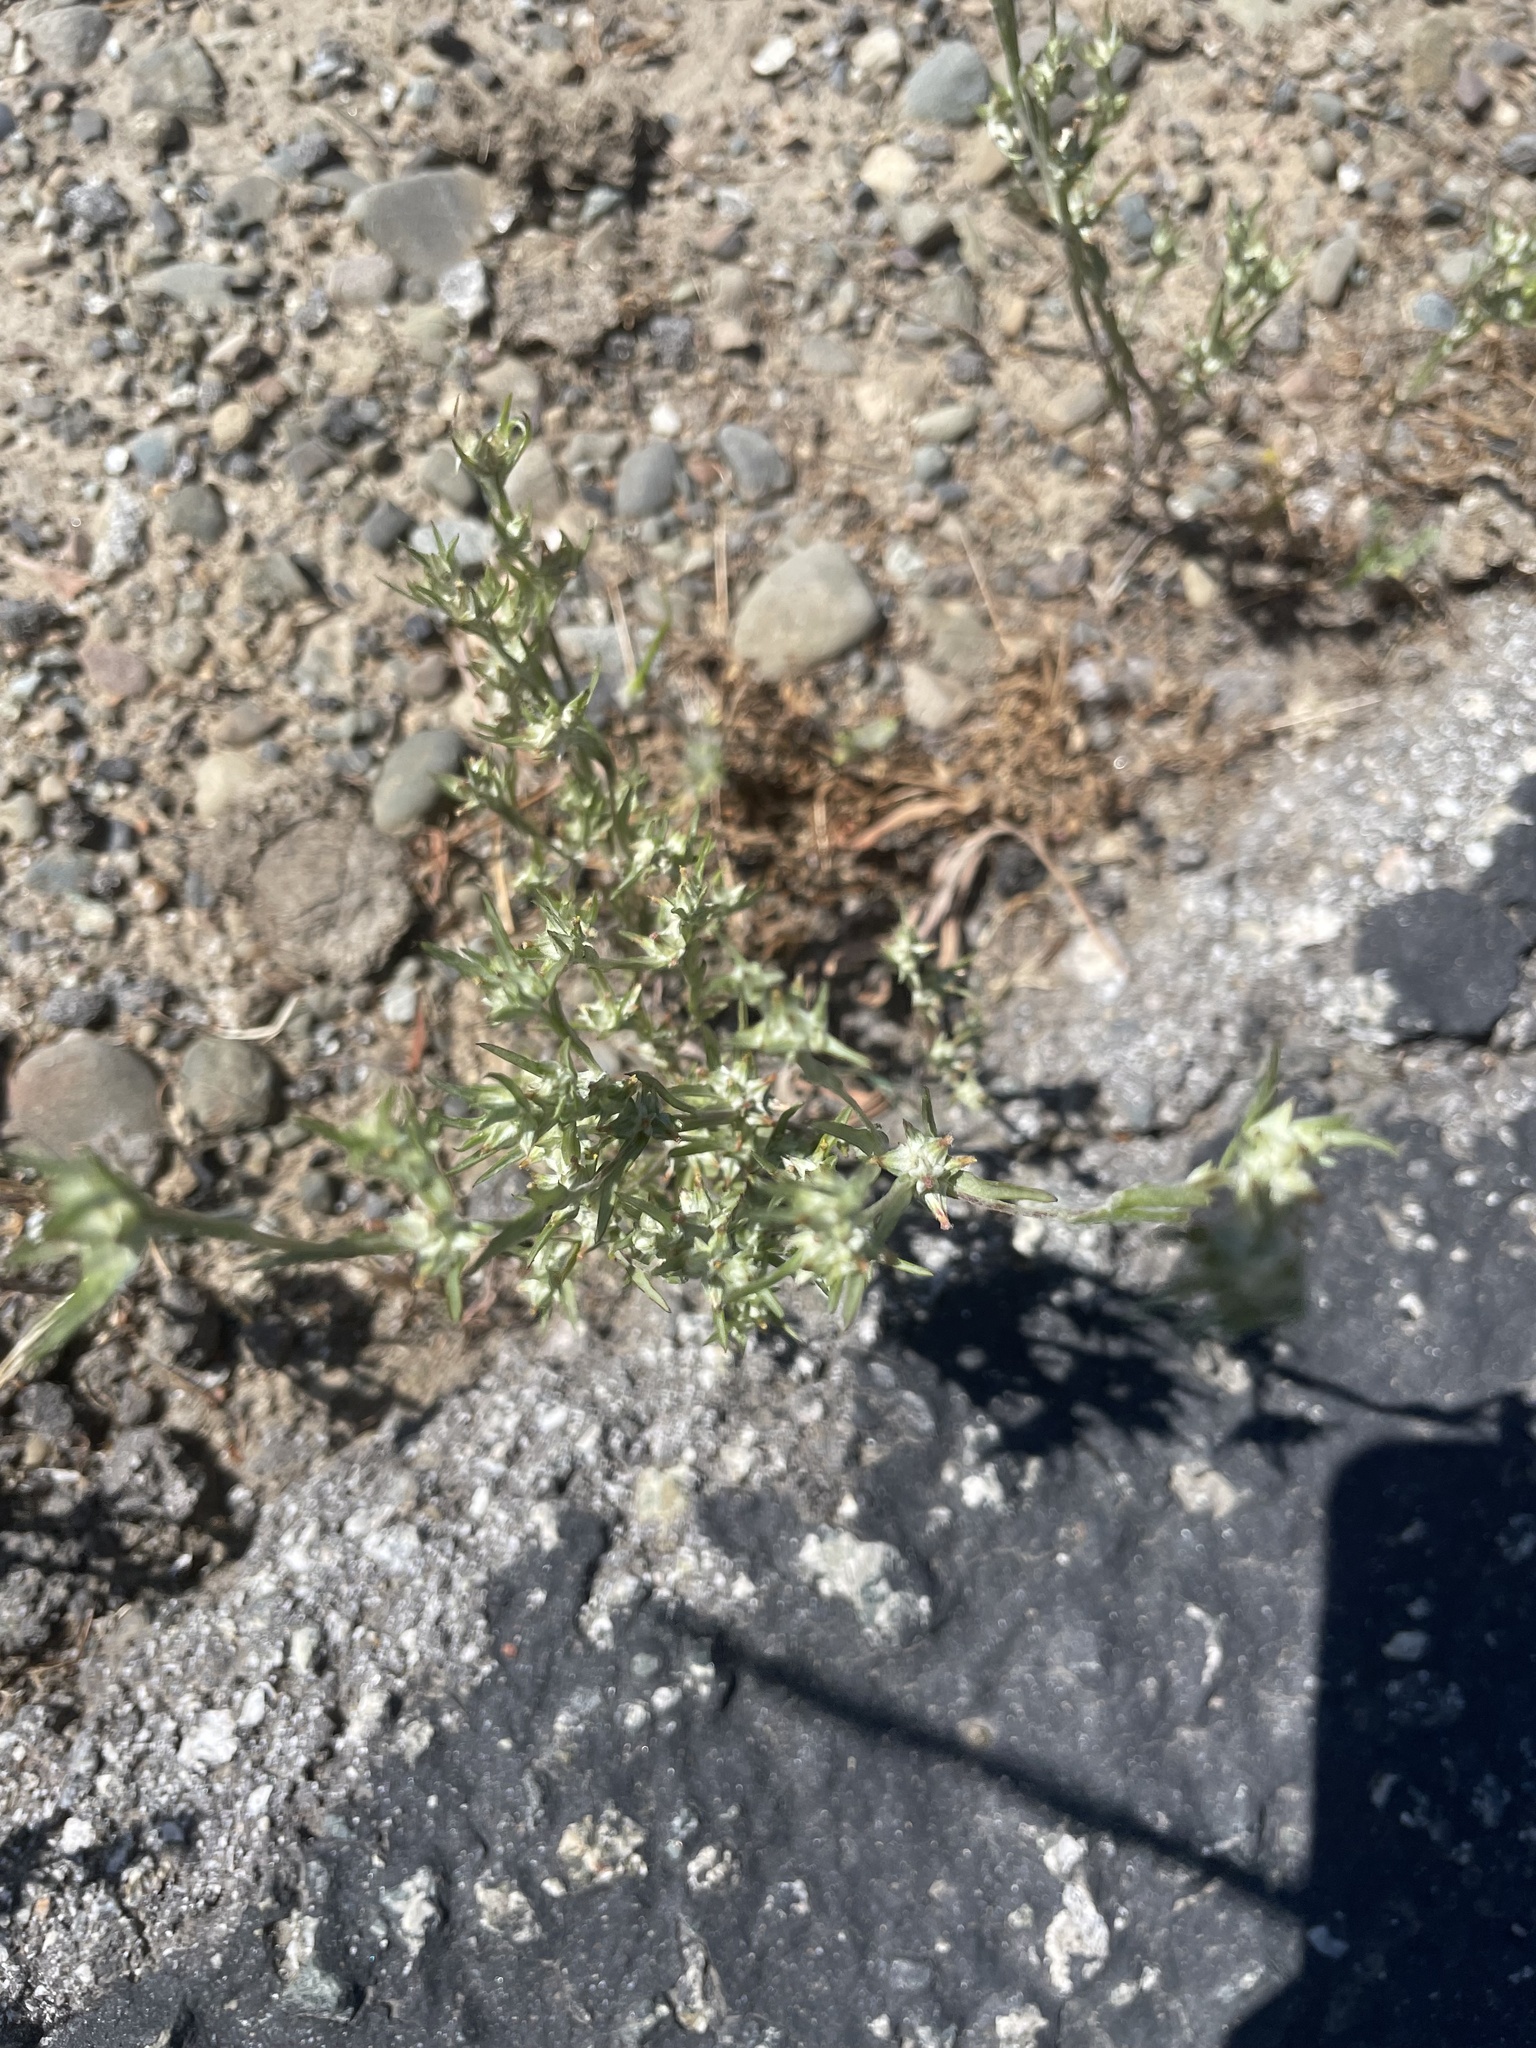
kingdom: Plantae
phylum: Tracheophyta
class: Magnoliopsida
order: Asterales
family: Asteraceae
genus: Logfia
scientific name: Logfia gallica
